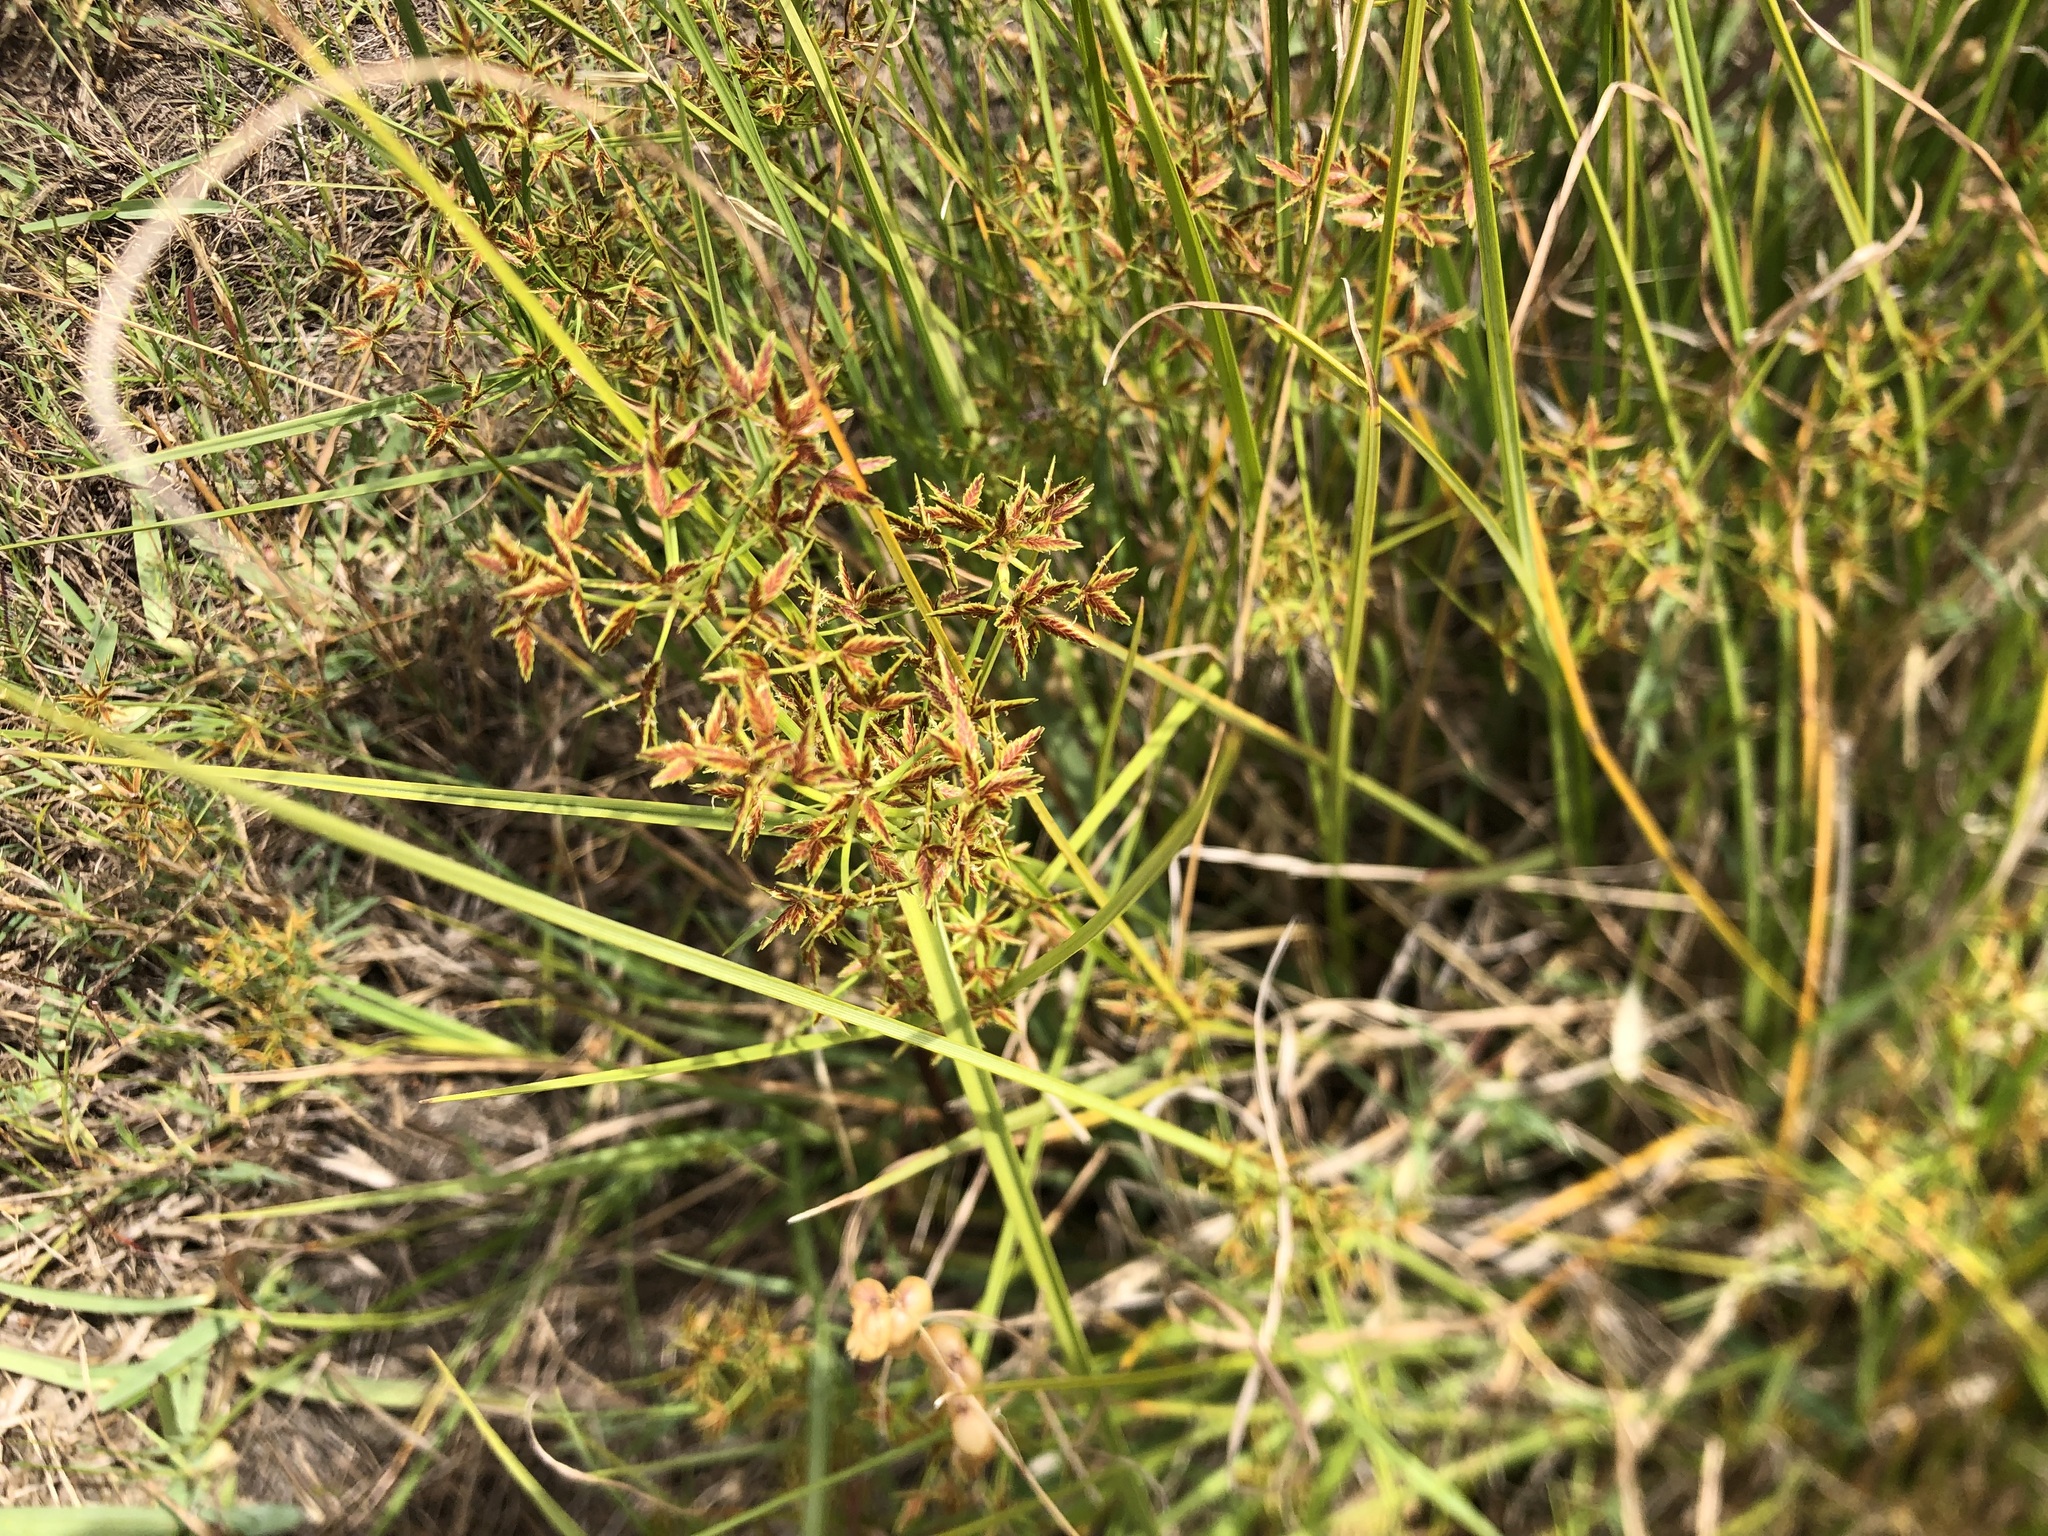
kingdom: Plantae
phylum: Tracheophyta
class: Liliopsida
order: Poales
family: Cyperaceae
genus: Cyperus
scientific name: Cyperus sphaerospermus
